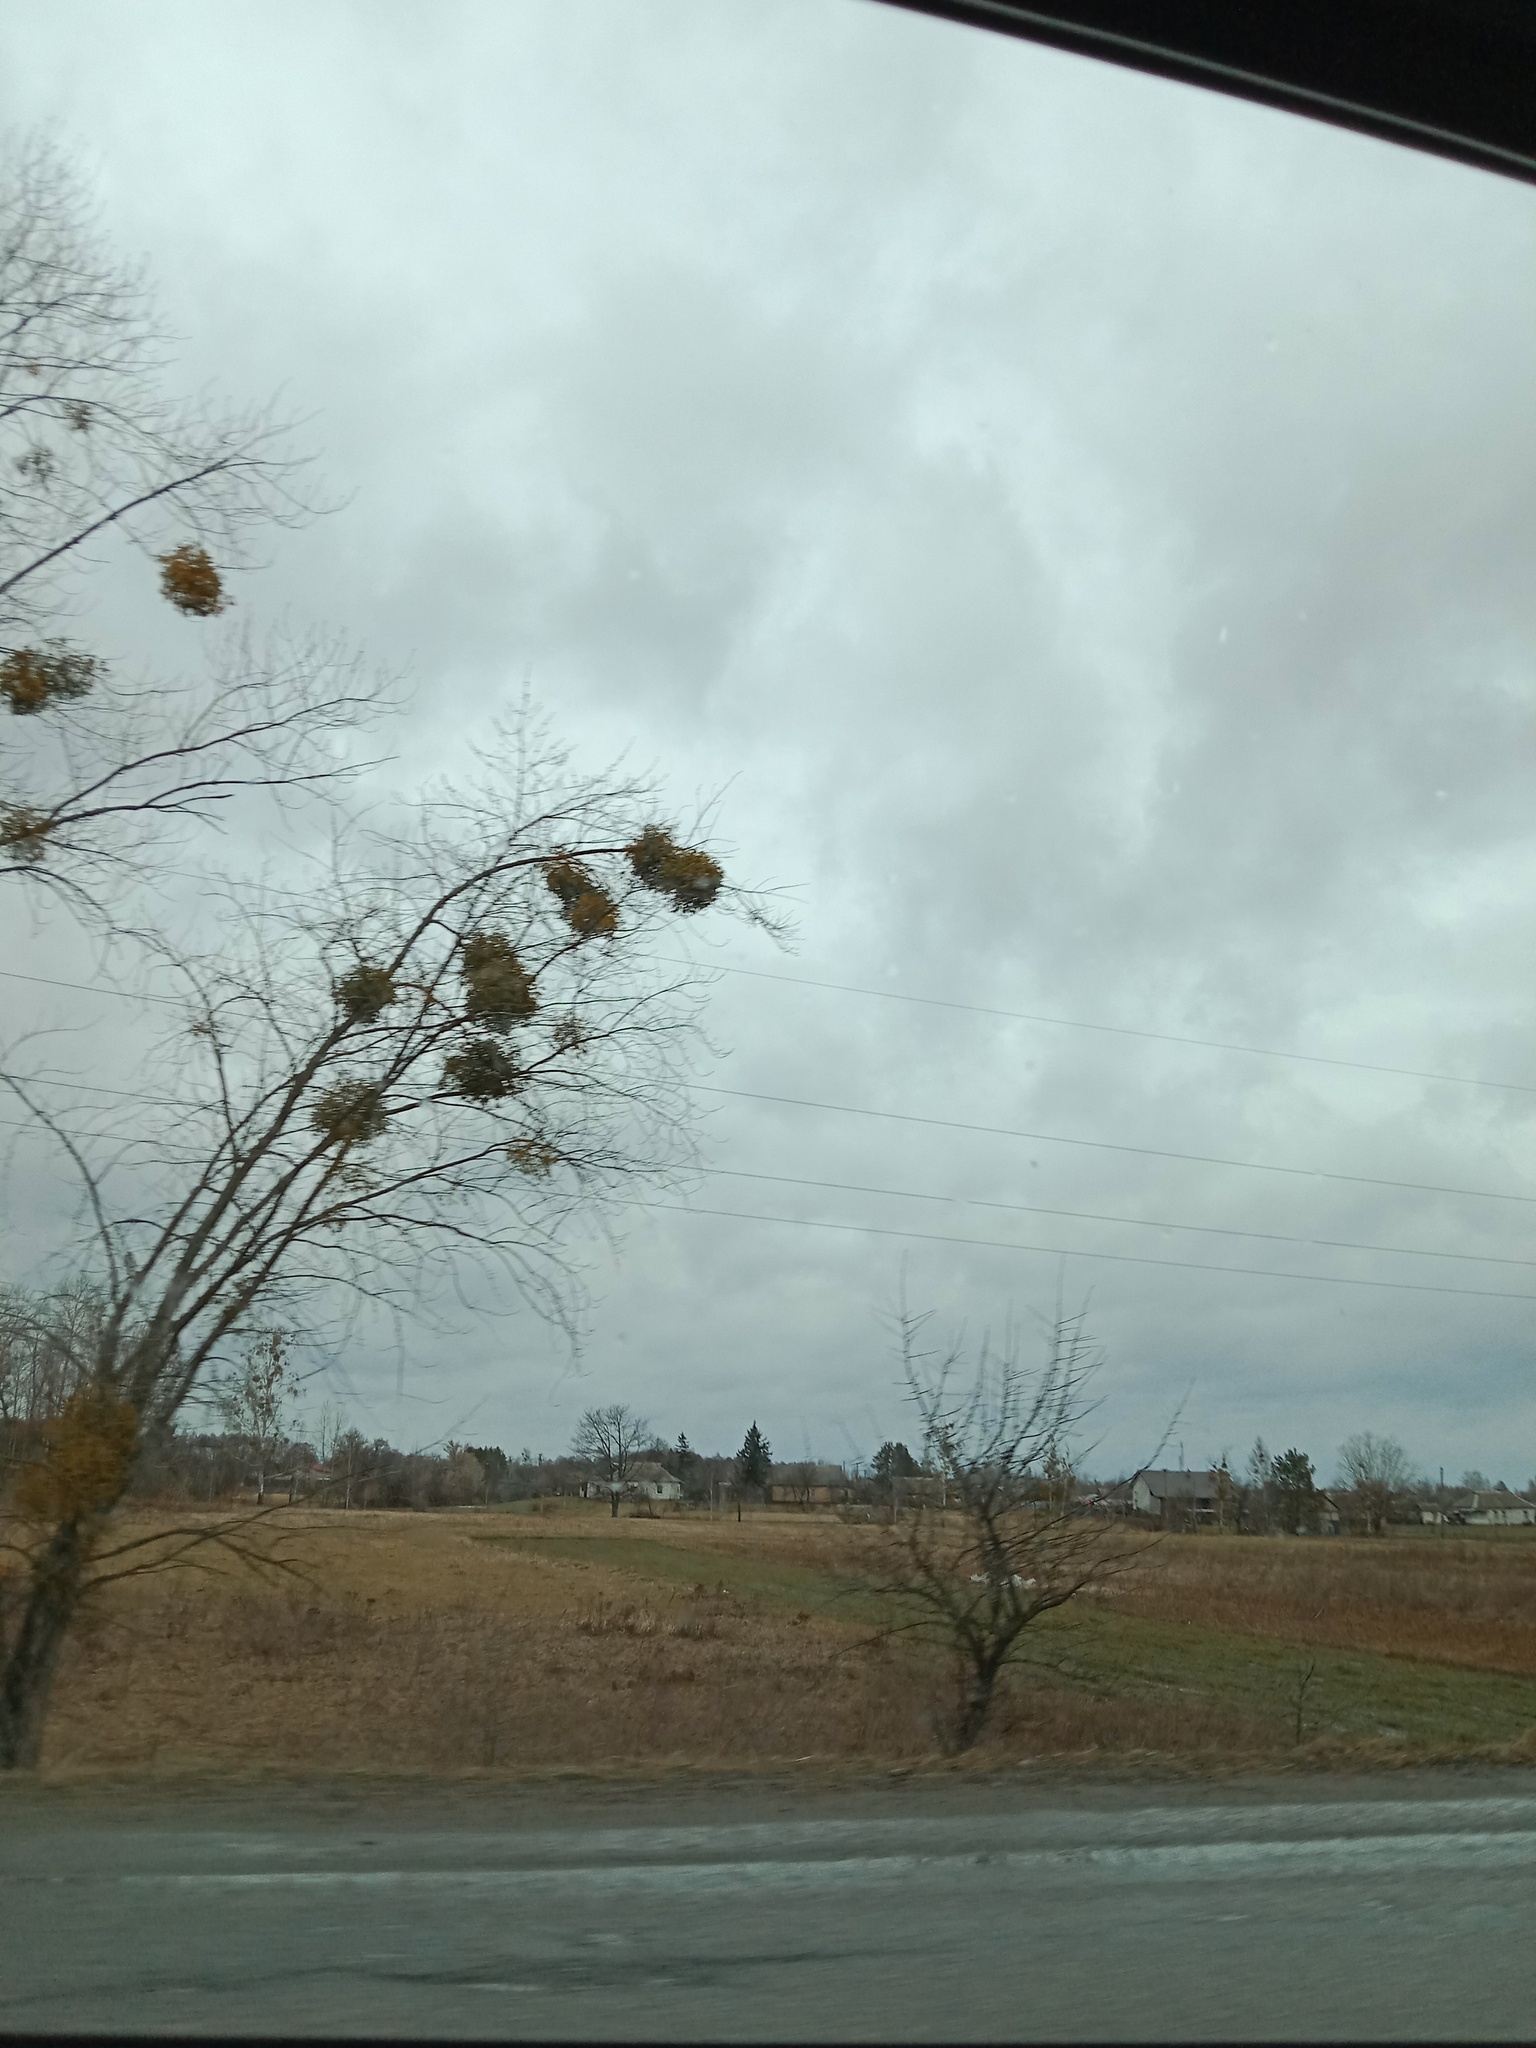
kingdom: Plantae
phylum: Tracheophyta
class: Magnoliopsida
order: Santalales
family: Viscaceae
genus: Viscum
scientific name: Viscum album
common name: Mistletoe
